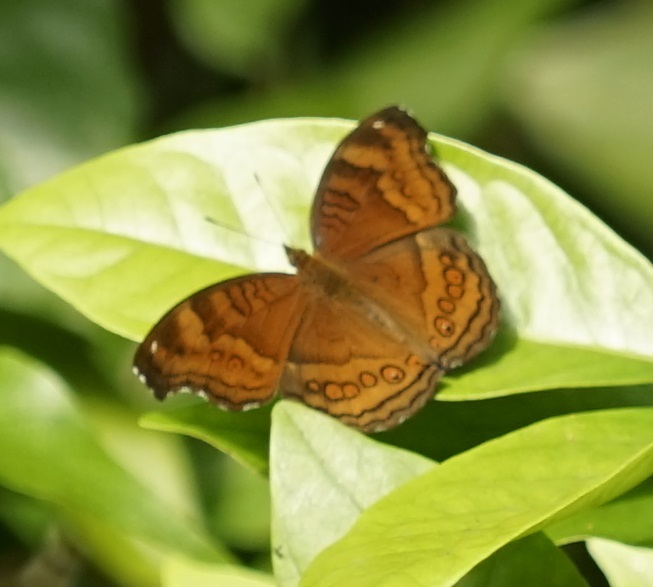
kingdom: Animalia
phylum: Arthropoda
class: Insecta
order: Lepidoptera
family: Nymphalidae
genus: Junonia
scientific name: Junonia hedonia
